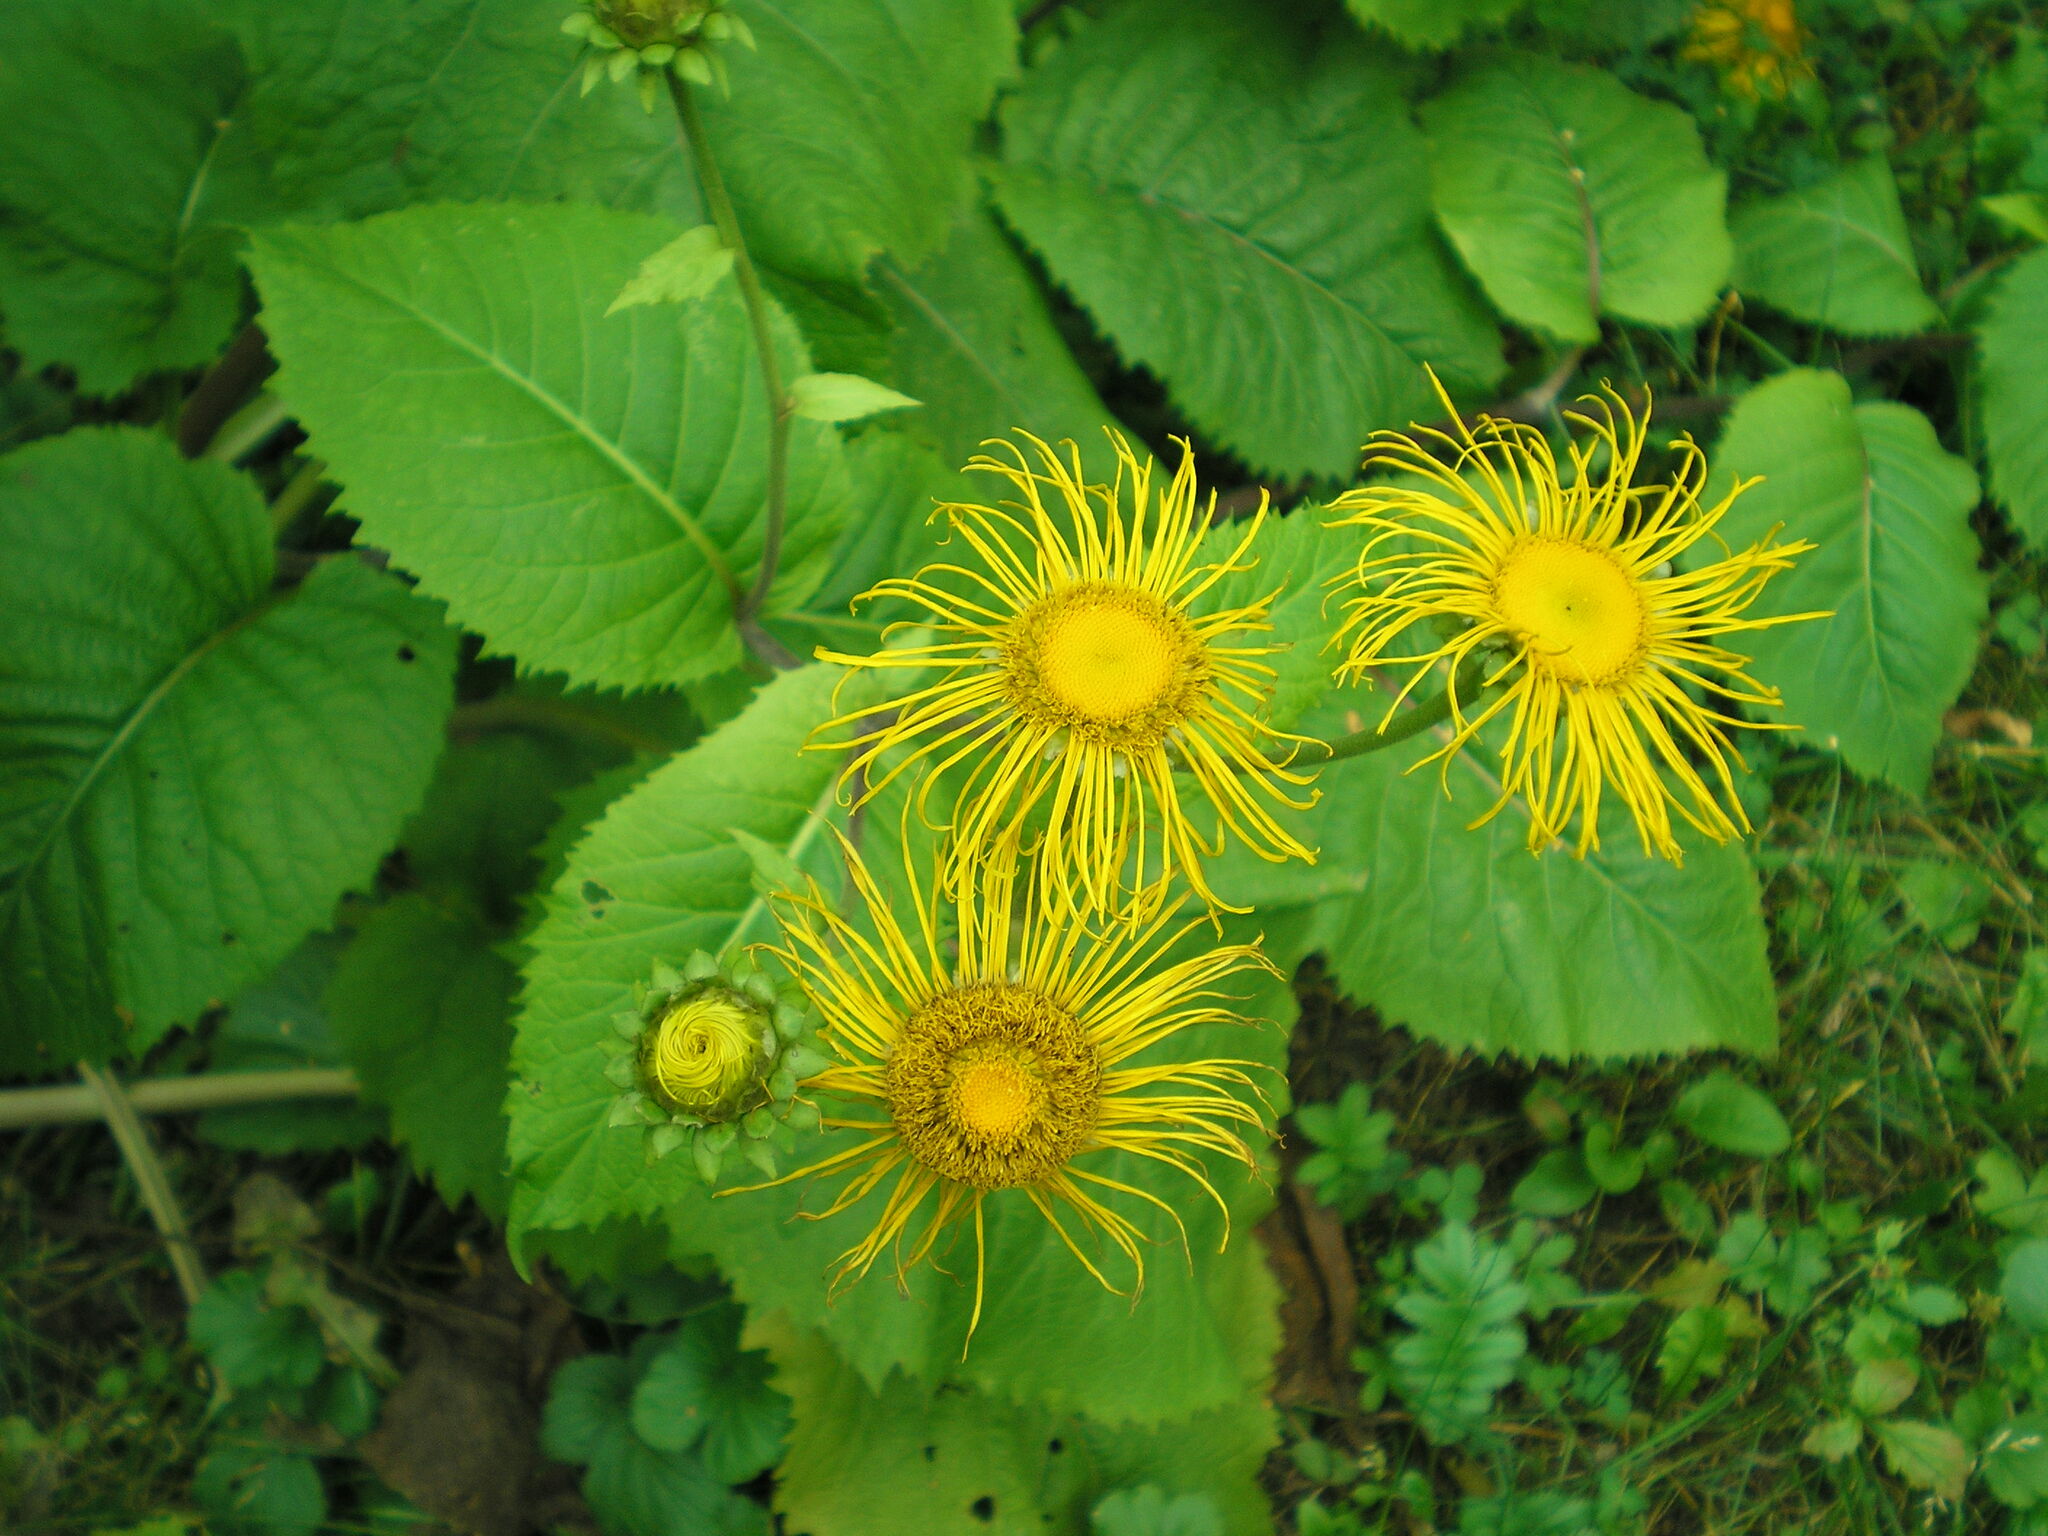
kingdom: Plantae
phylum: Tracheophyta
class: Magnoliopsida
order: Asterales
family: Asteraceae
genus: Telekia
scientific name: Telekia speciosa
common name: Yellow oxeye
